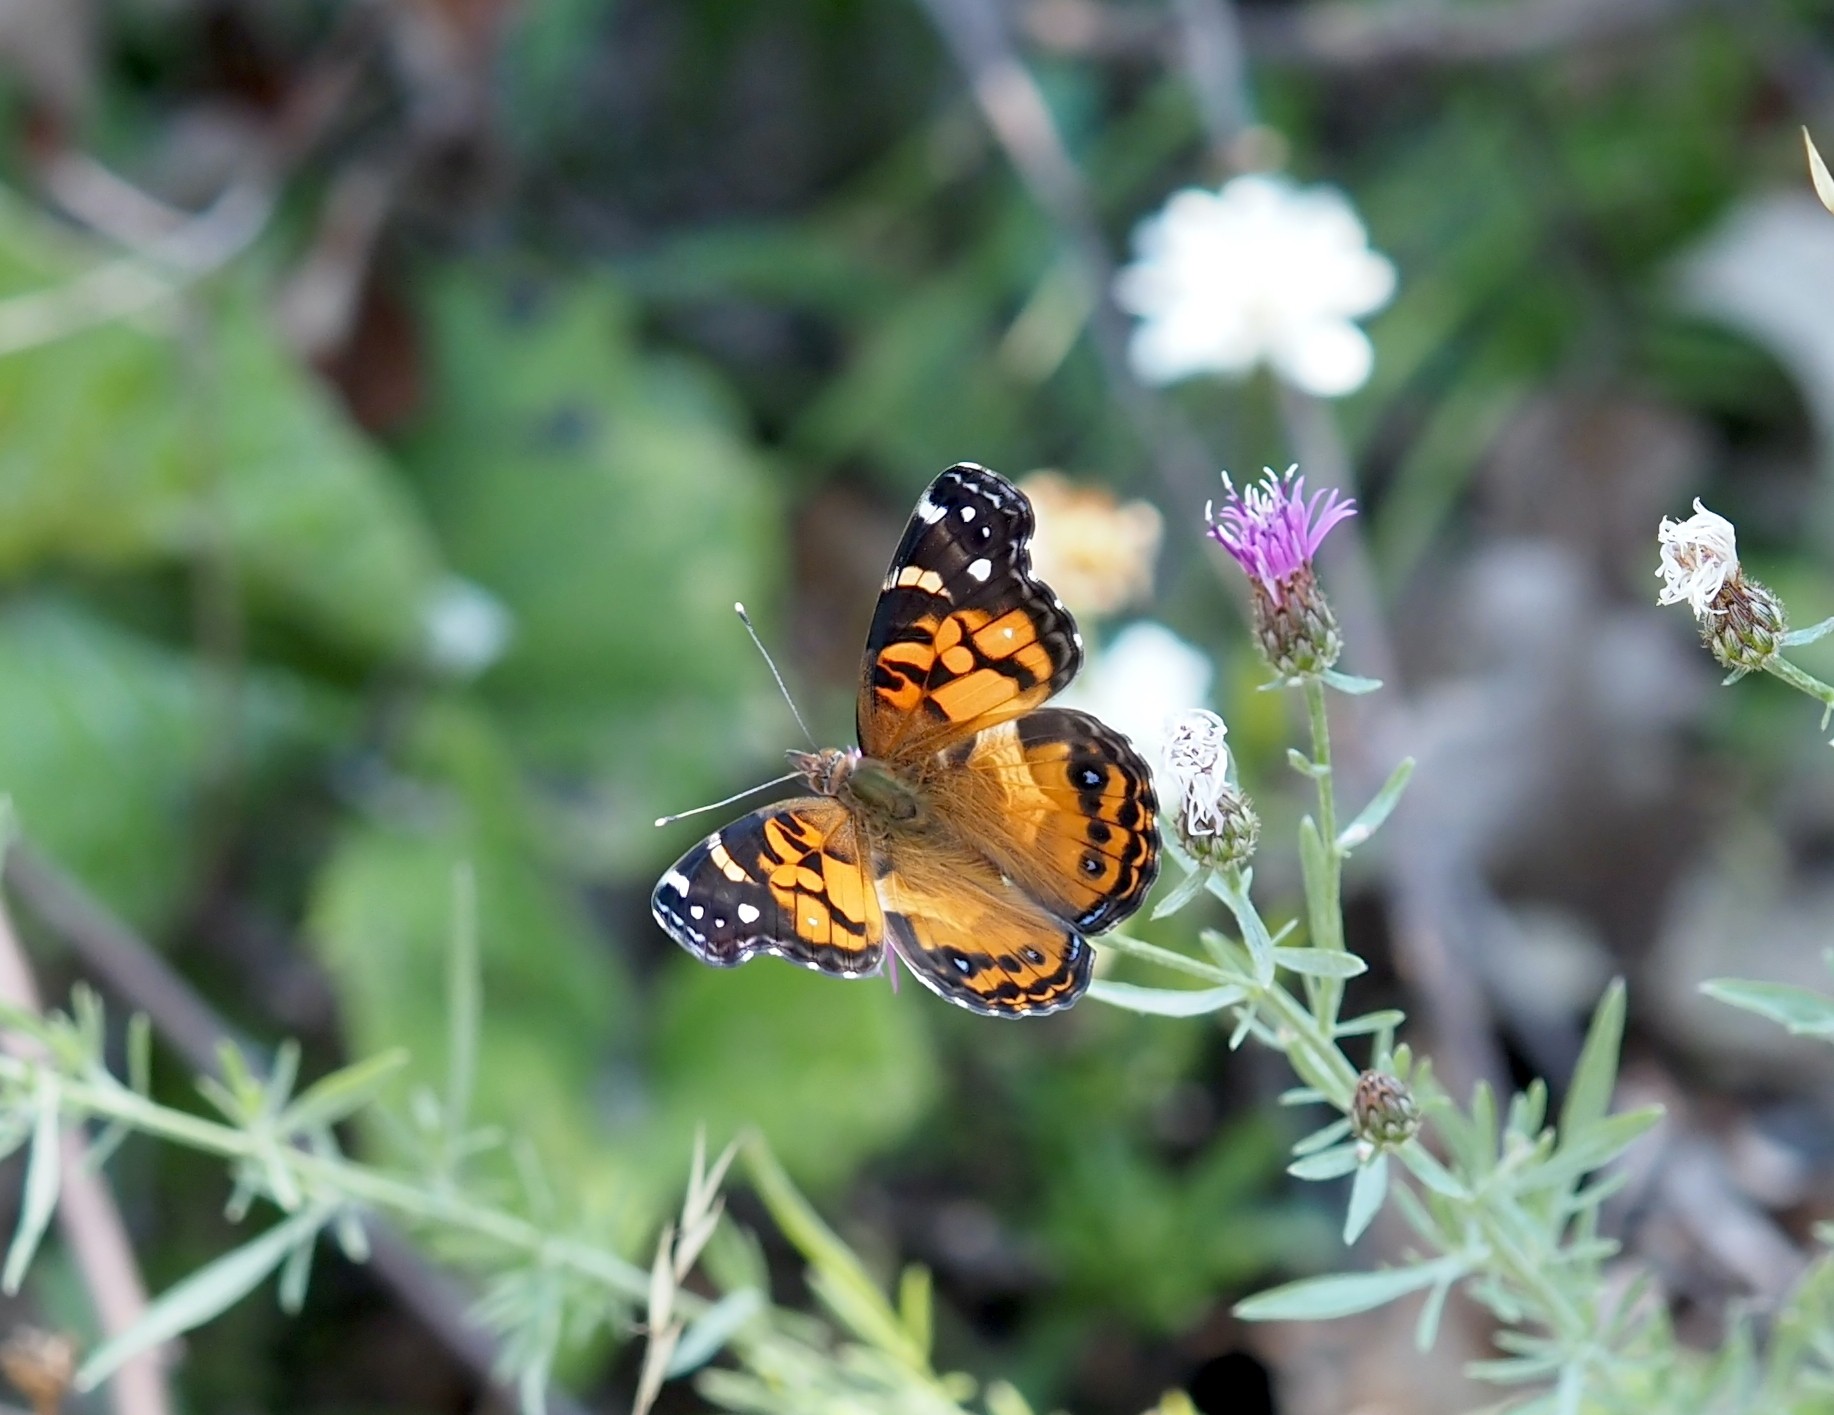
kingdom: Animalia
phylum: Arthropoda
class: Insecta
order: Lepidoptera
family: Nymphalidae
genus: Vanessa
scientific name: Vanessa virginiensis
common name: American lady
